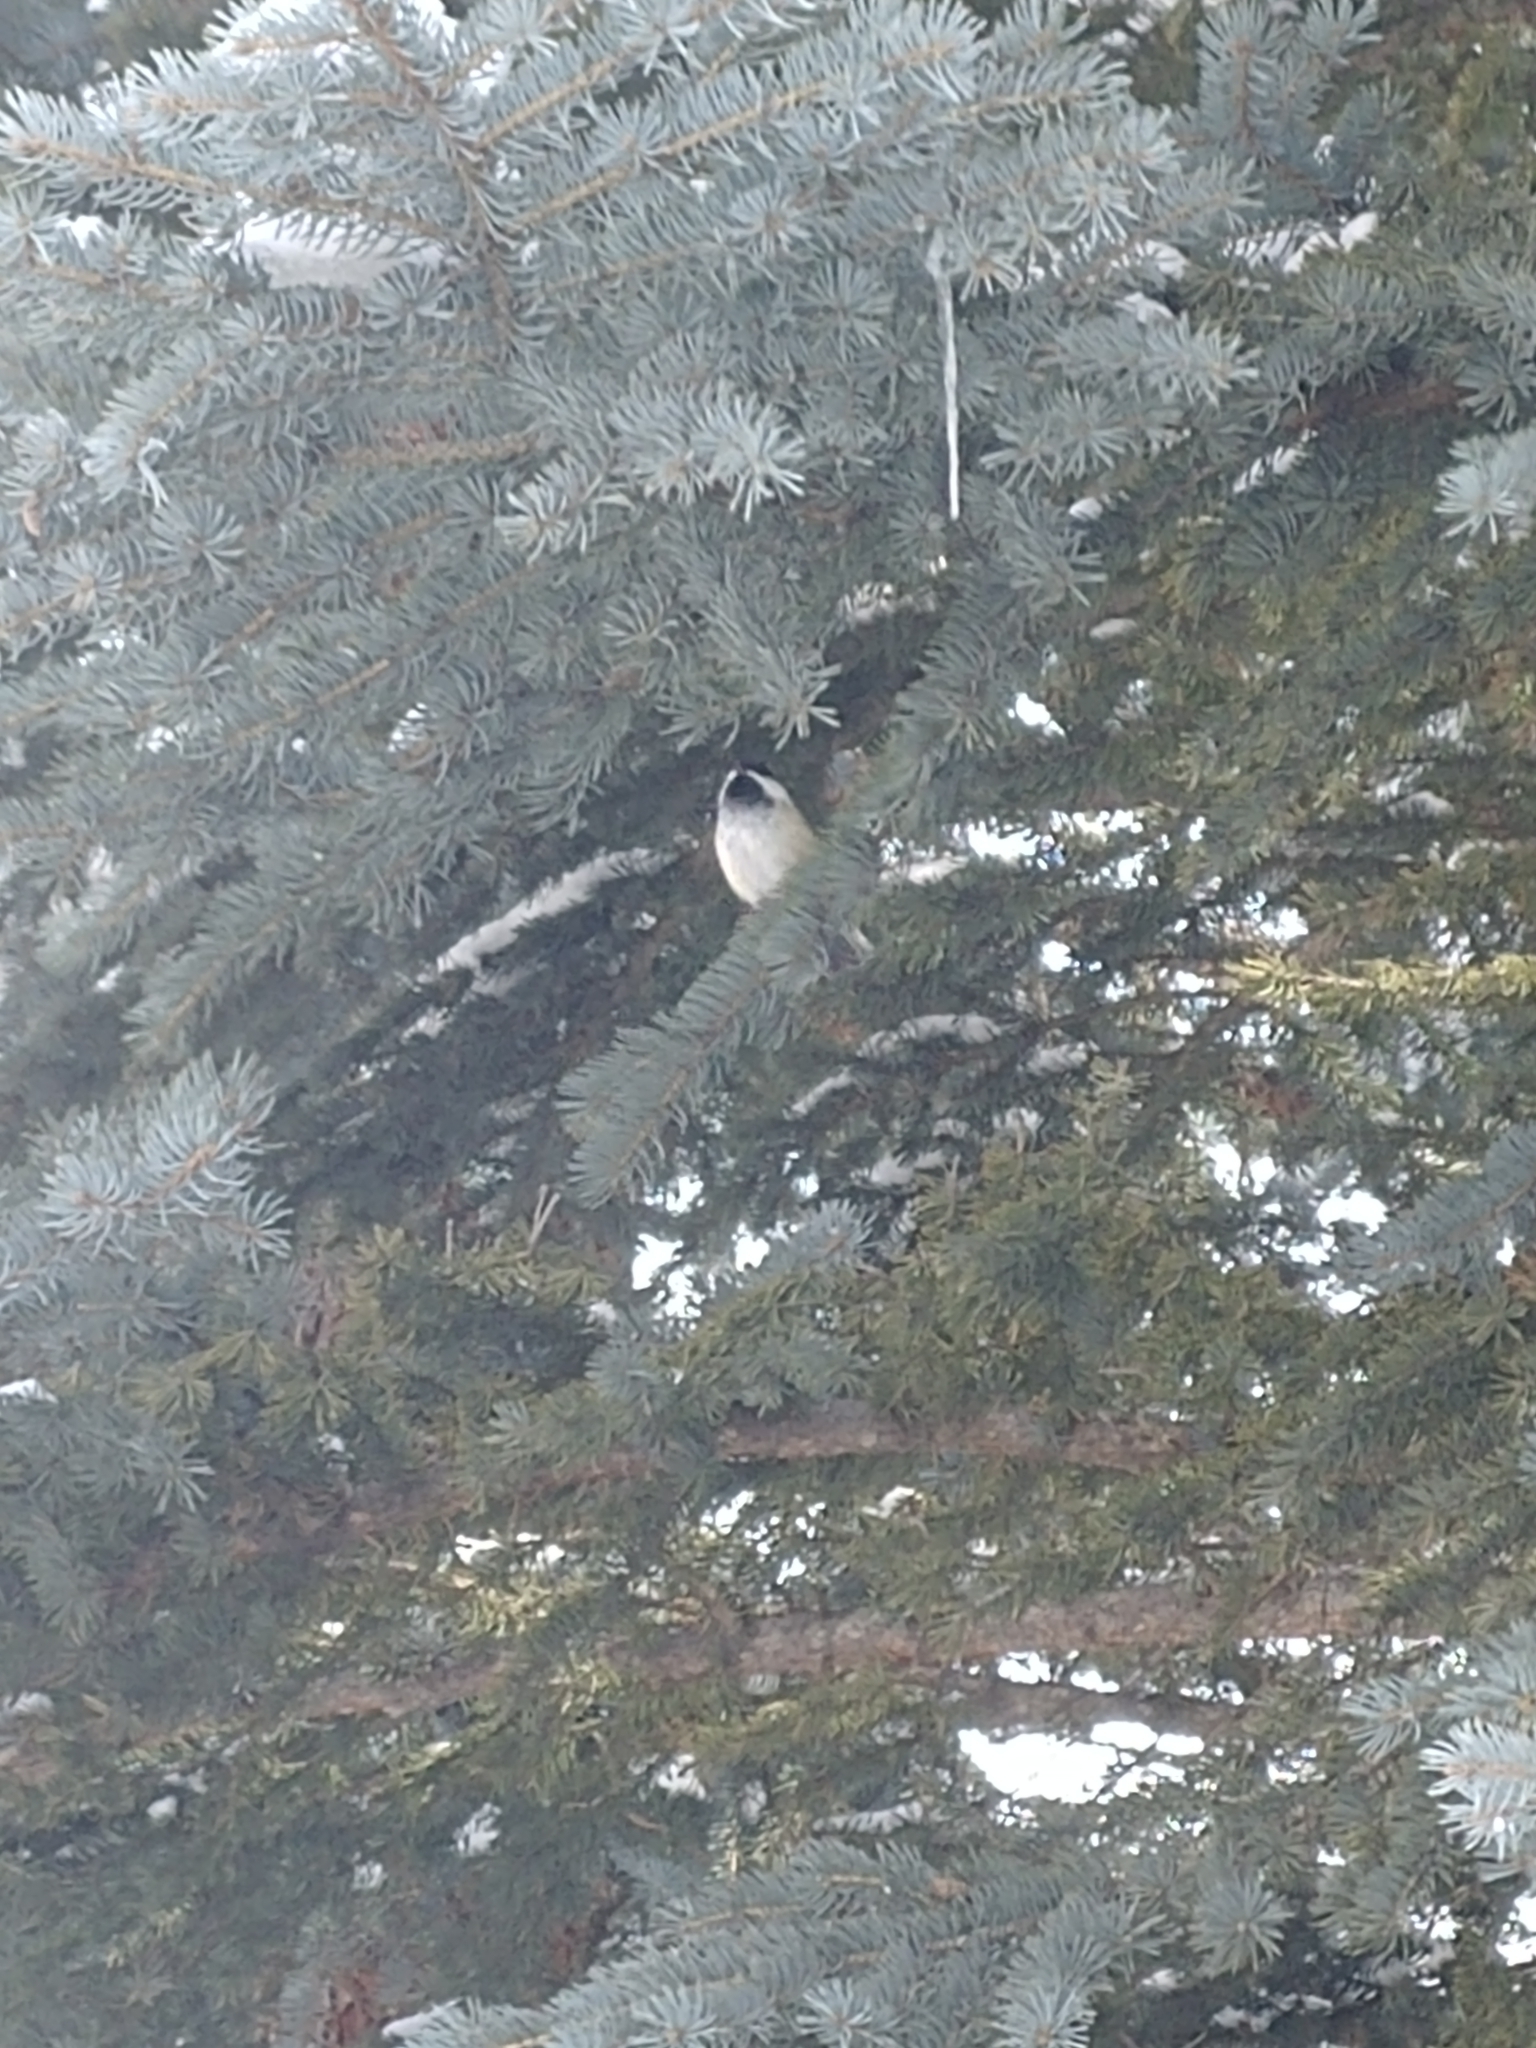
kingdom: Animalia
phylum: Chordata
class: Aves
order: Passeriformes
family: Paridae
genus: Poecile
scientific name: Poecile atricapillus
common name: Black-capped chickadee
